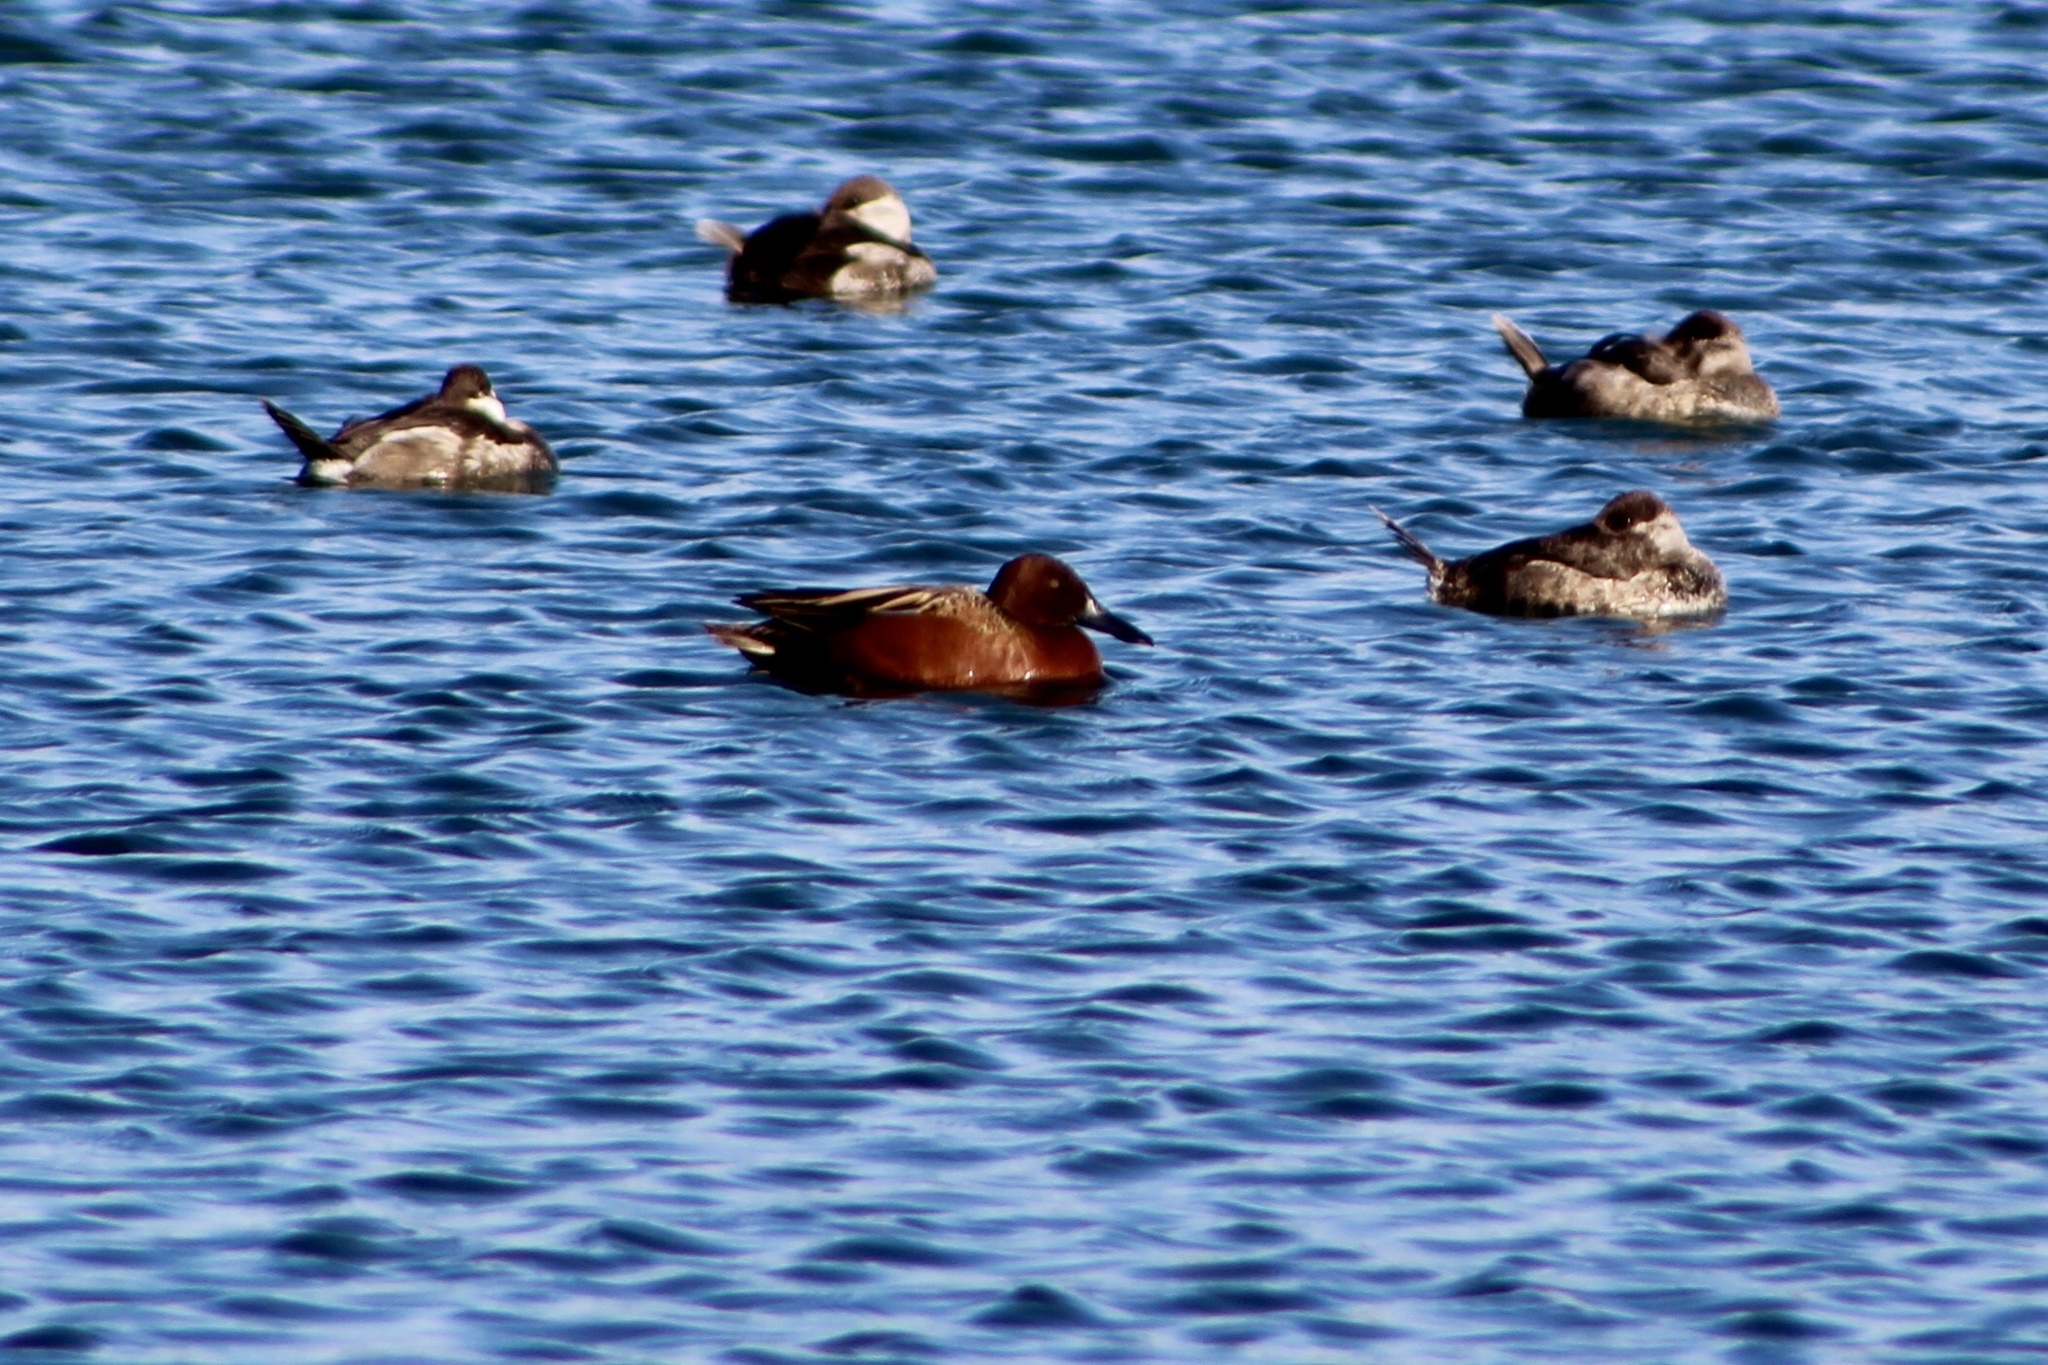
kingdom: Animalia
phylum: Chordata
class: Aves
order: Anseriformes
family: Anatidae
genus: Spatula
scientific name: Spatula cyanoptera
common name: Cinnamon teal
